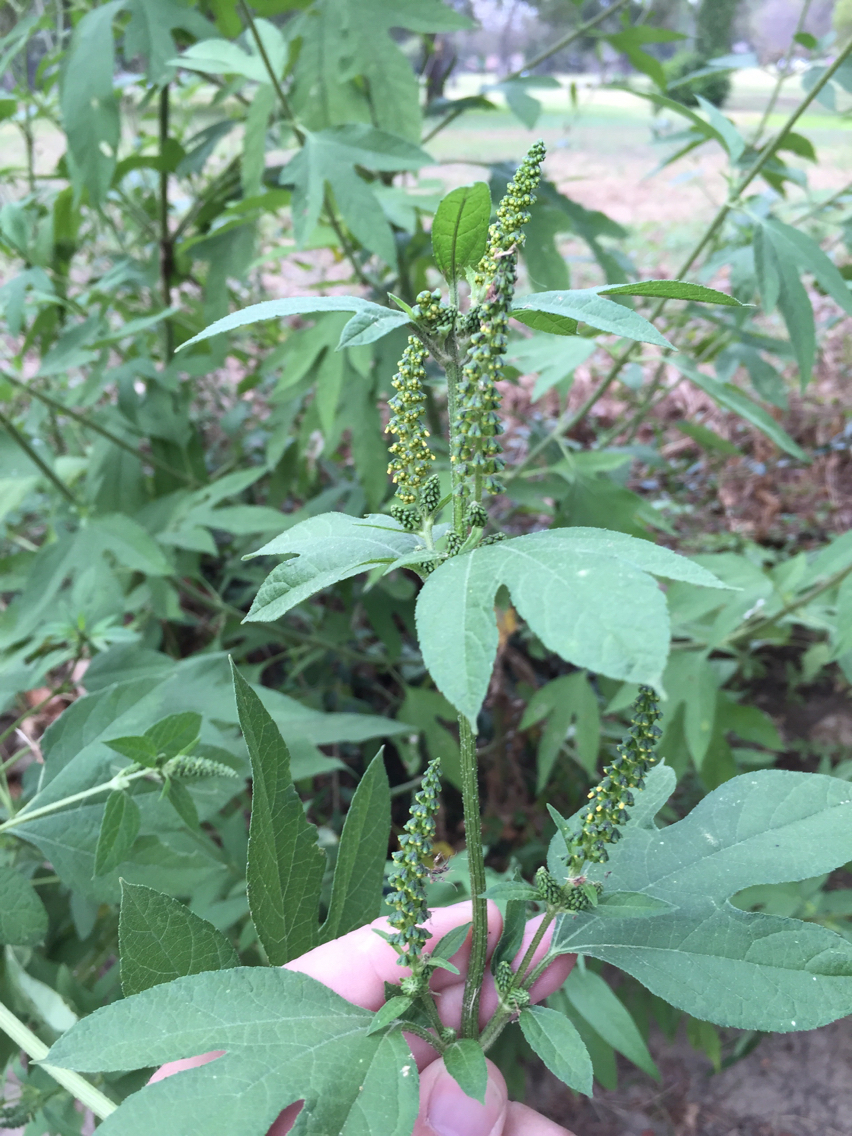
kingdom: Plantae
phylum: Tracheophyta
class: Magnoliopsida
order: Asterales
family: Asteraceae
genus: Ambrosia
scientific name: Ambrosia trifida
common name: Giant ragweed
